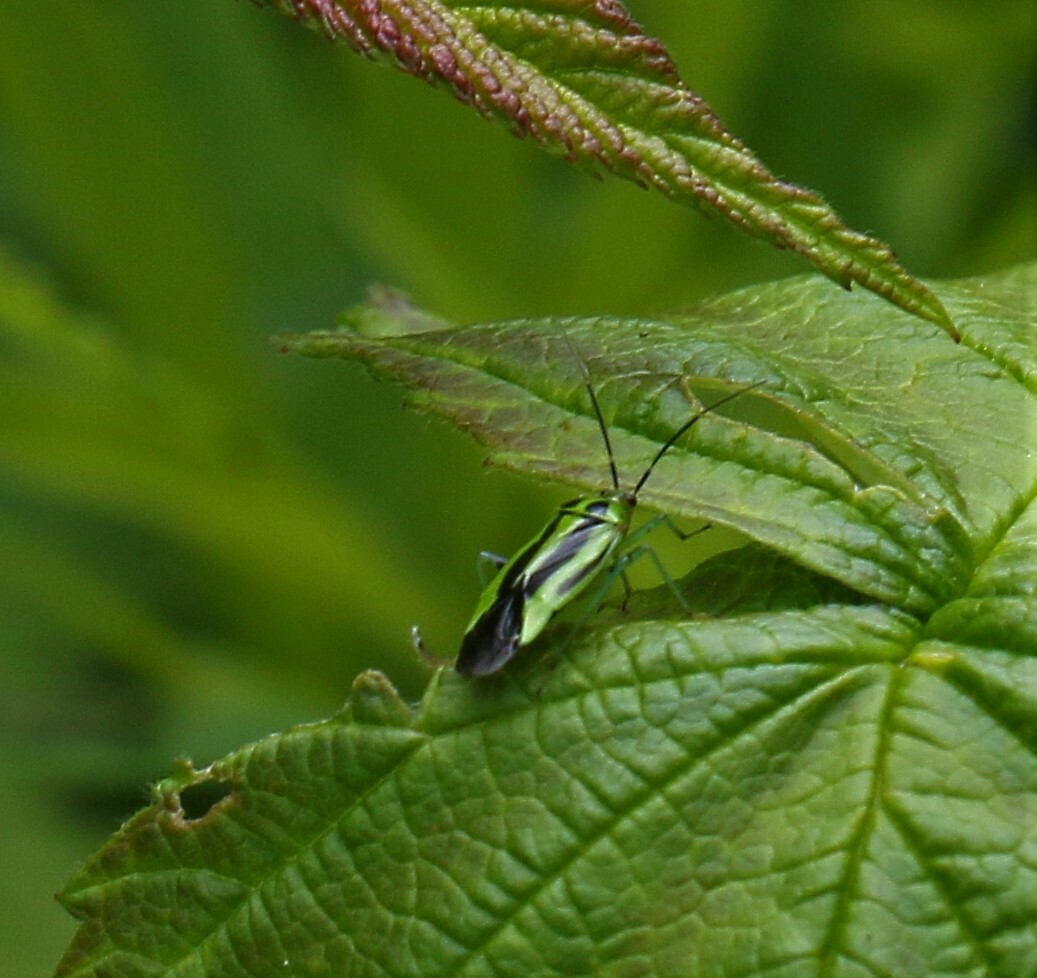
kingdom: Animalia
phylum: Arthropoda
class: Insecta
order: Hemiptera
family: Miridae
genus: Poecilocapsus
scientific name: Poecilocapsus lineatus
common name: Four-lined plant bug
